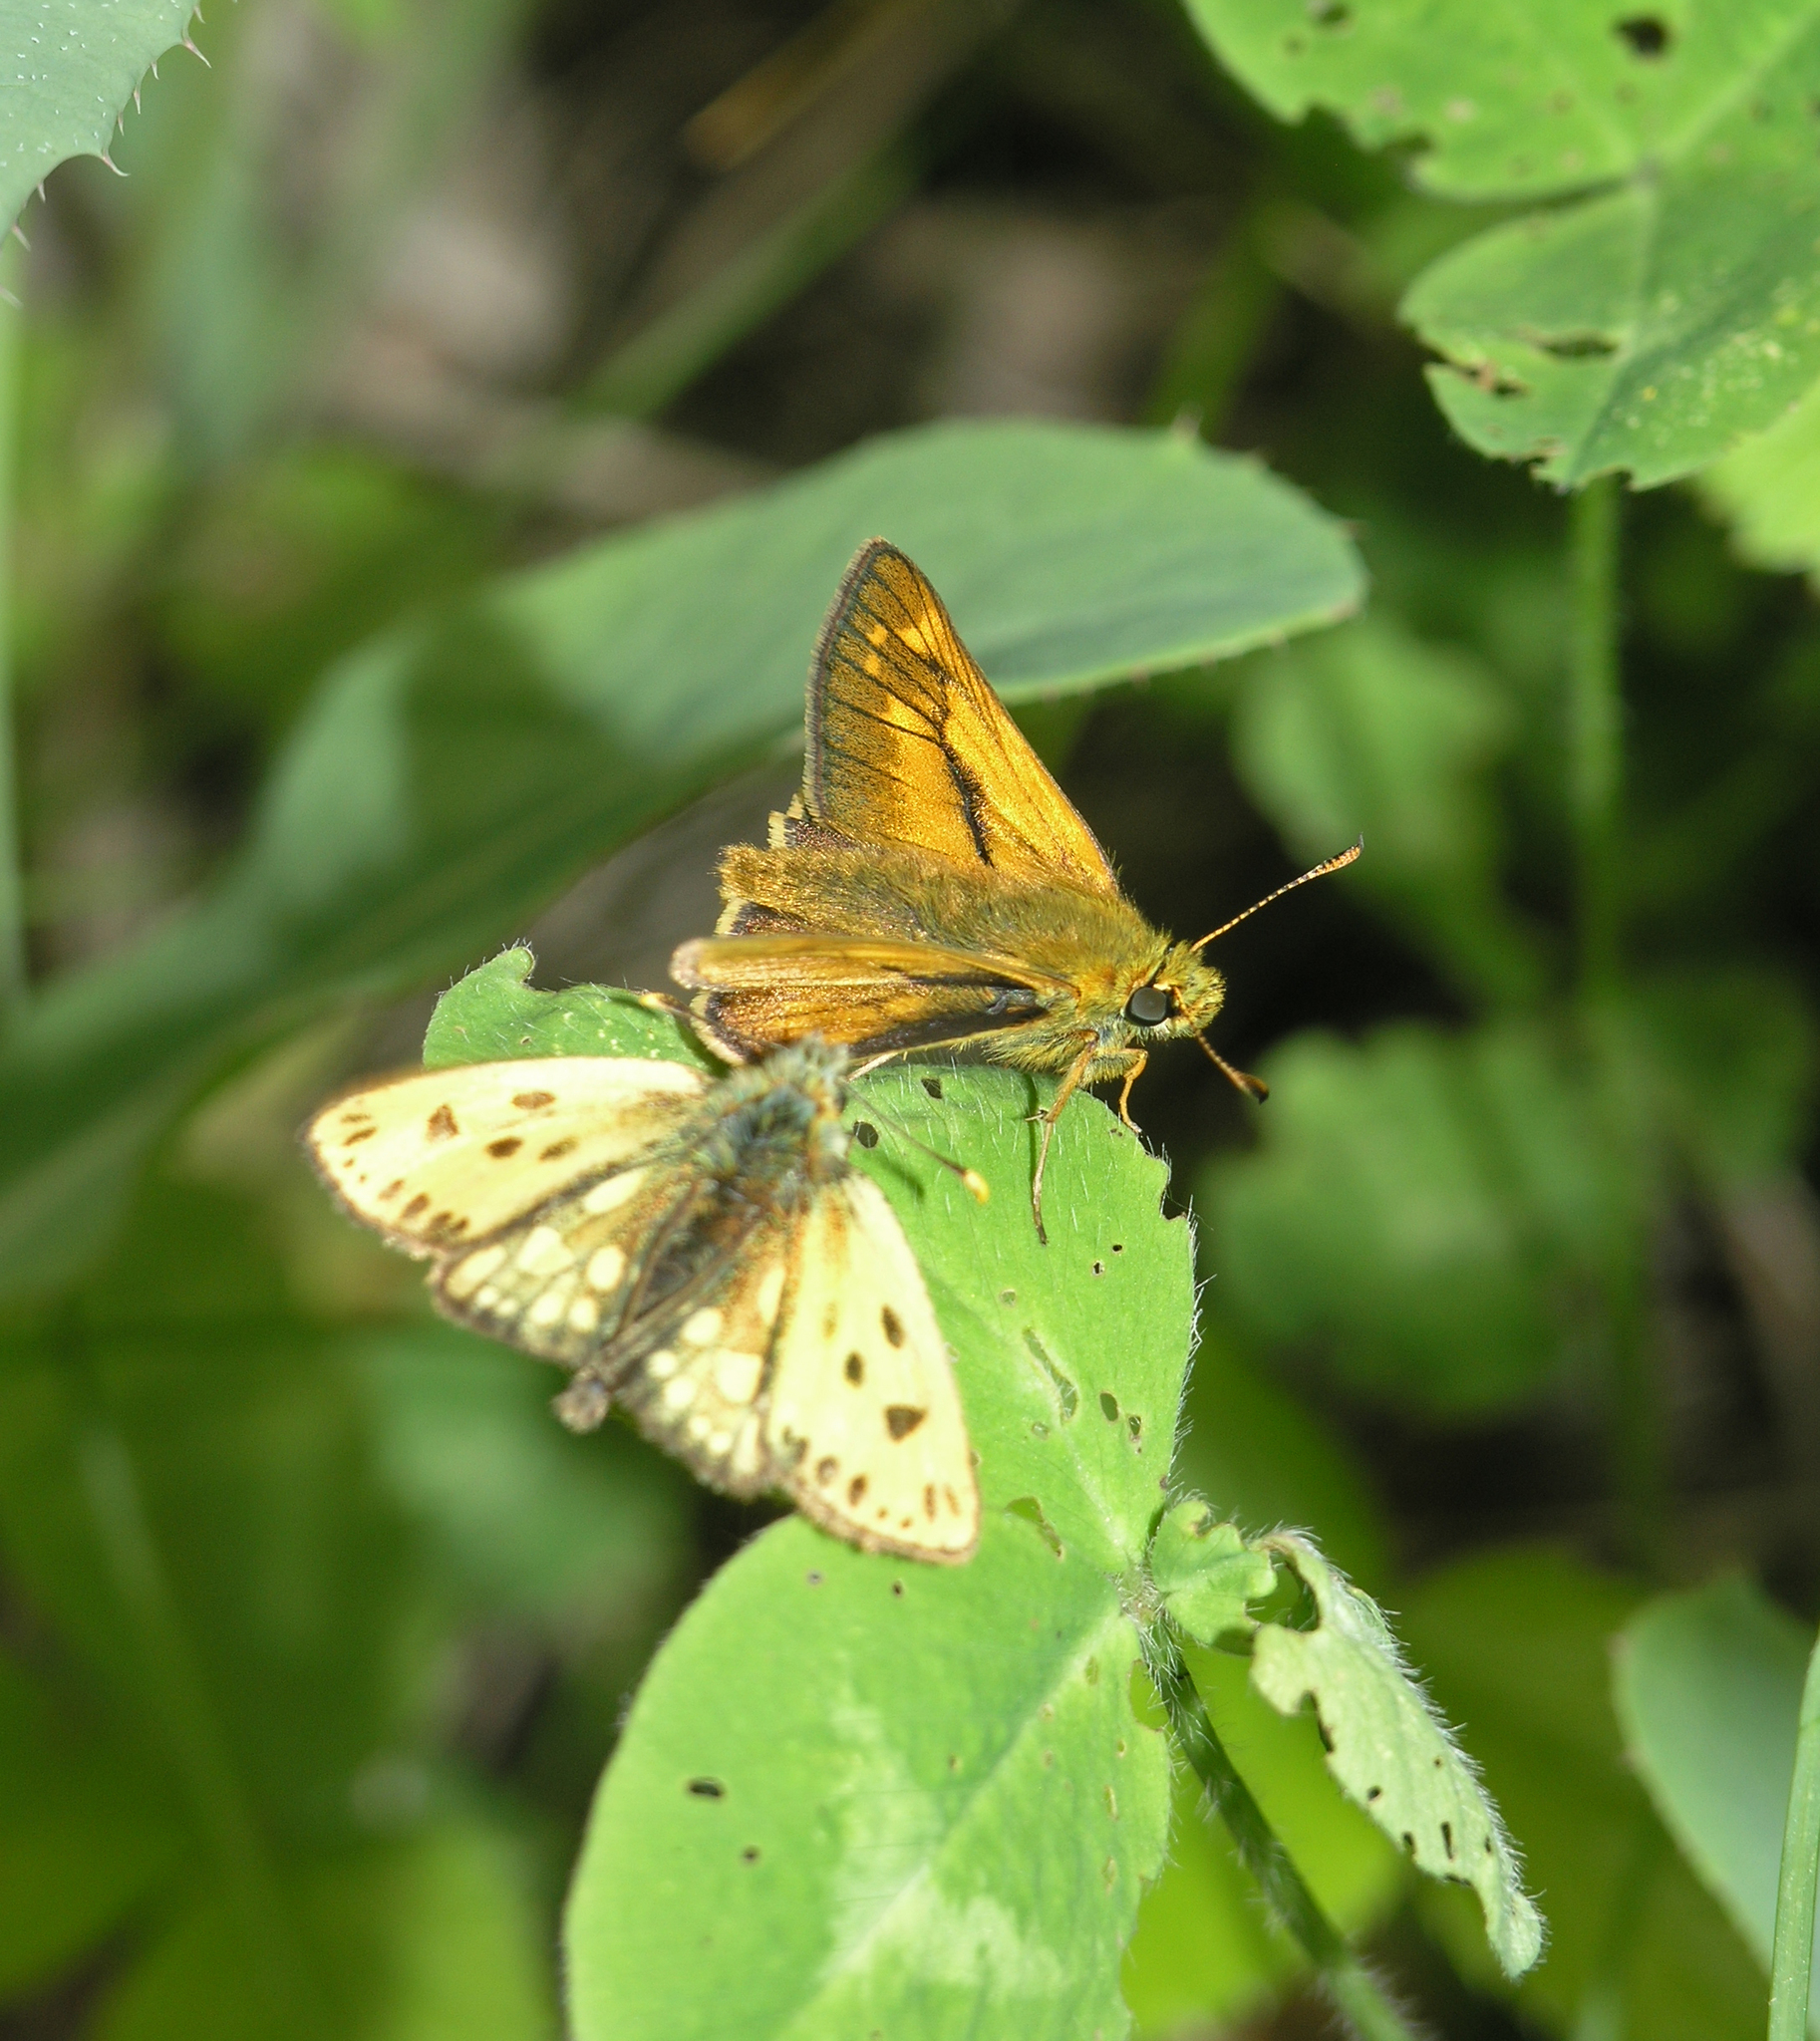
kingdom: Animalia
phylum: Arthropoda
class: Insecta
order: Lepidoptera
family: Hesperiidae
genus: Carterocephalus
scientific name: Carterocephalus silvicola
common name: Northern chequered skipper
